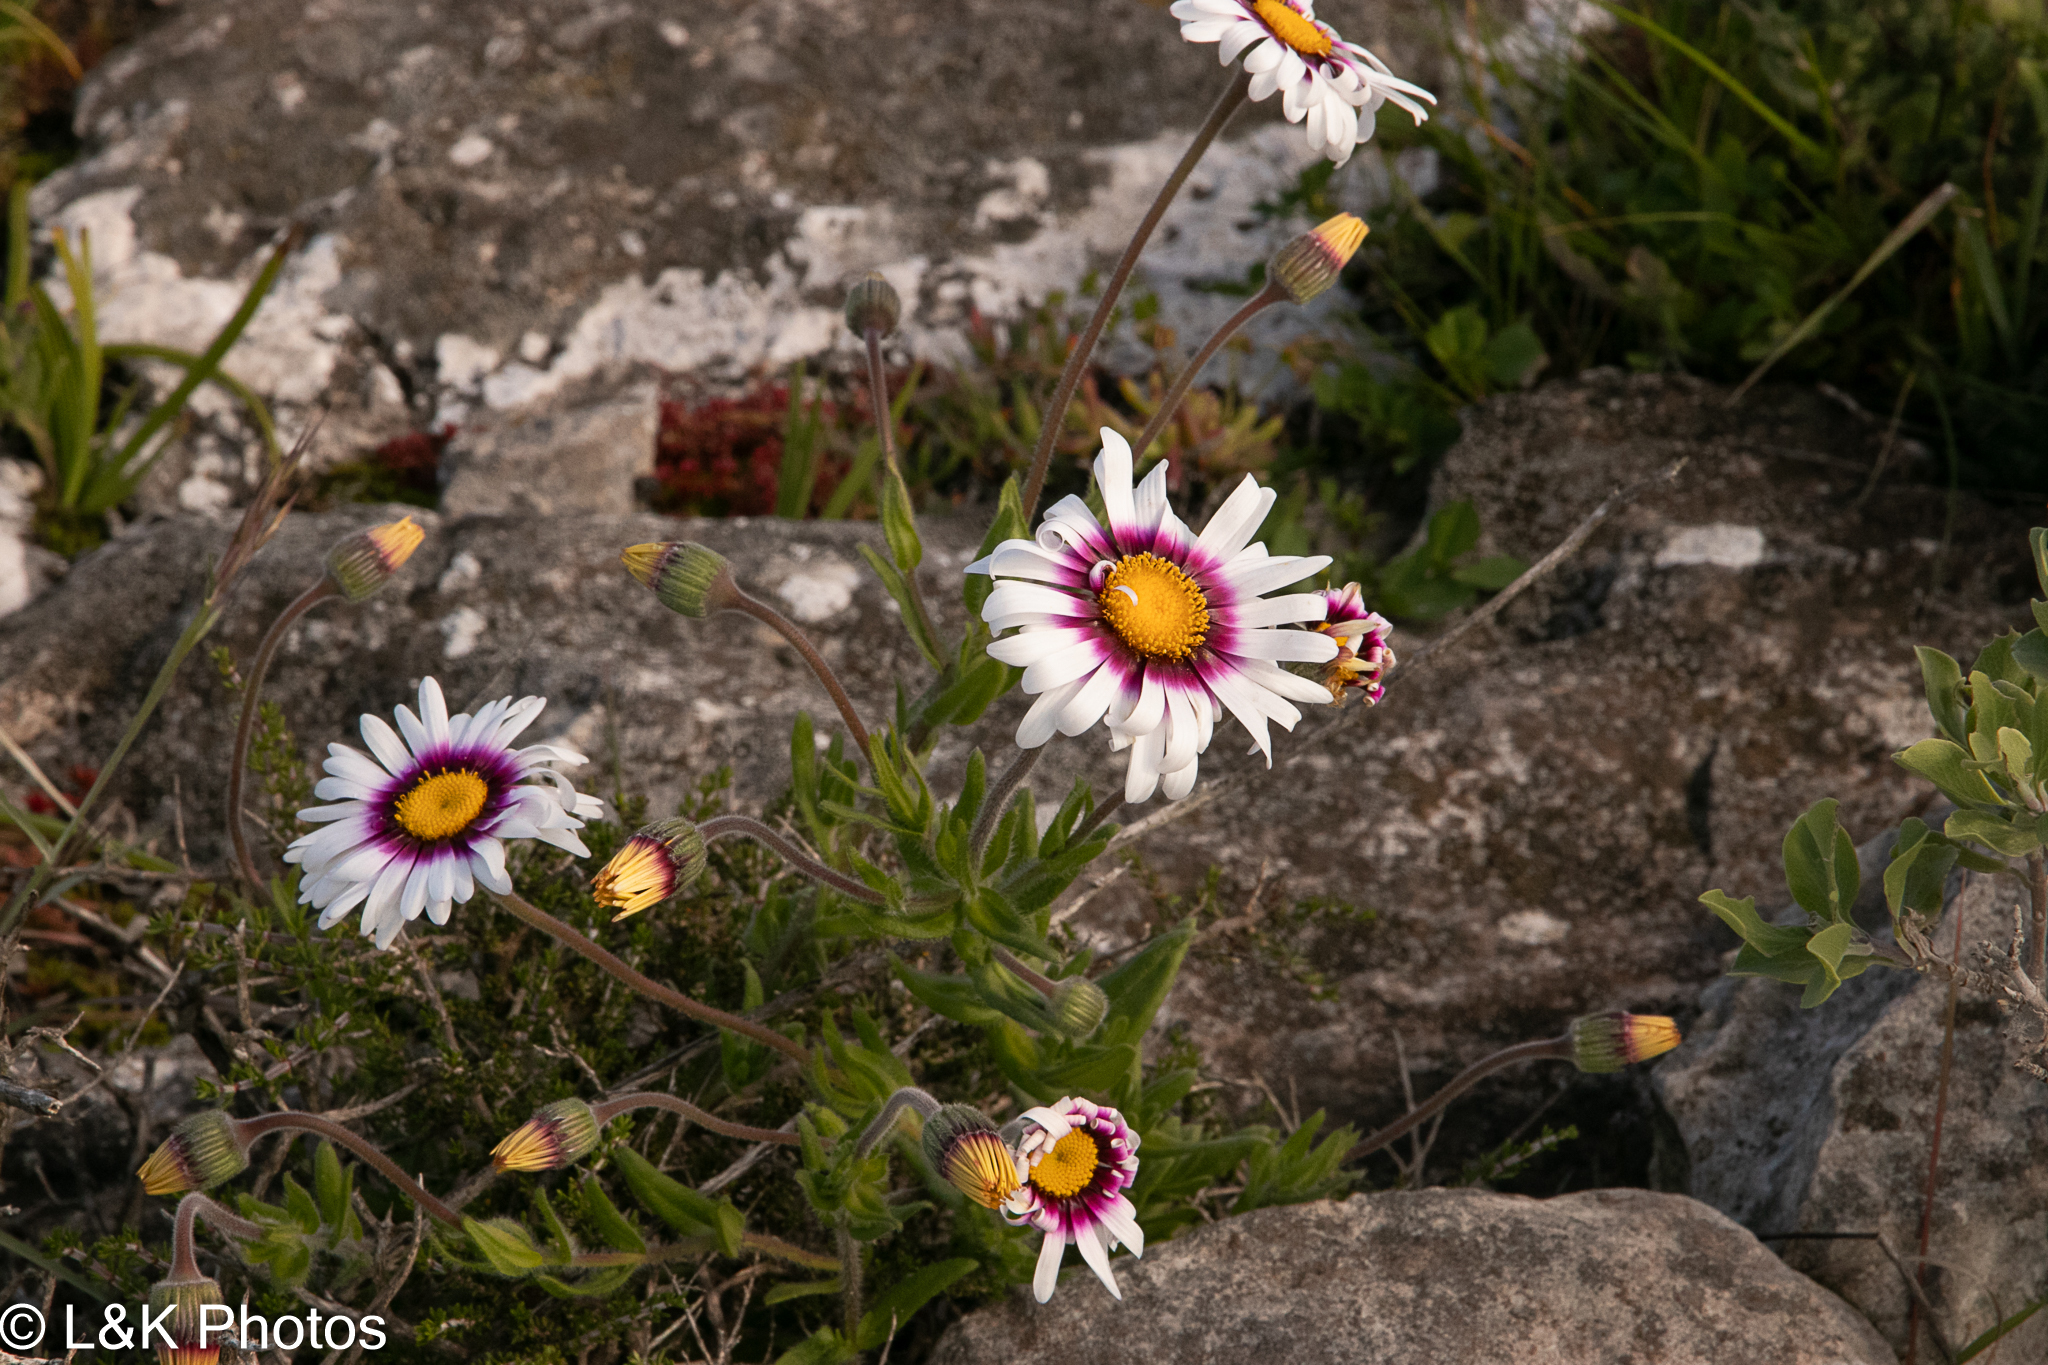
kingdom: Plantae
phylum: Tracheophyta
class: Magnoliopsida
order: Asterales
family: Asteraceae
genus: Felicia
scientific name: Felicia elongata
